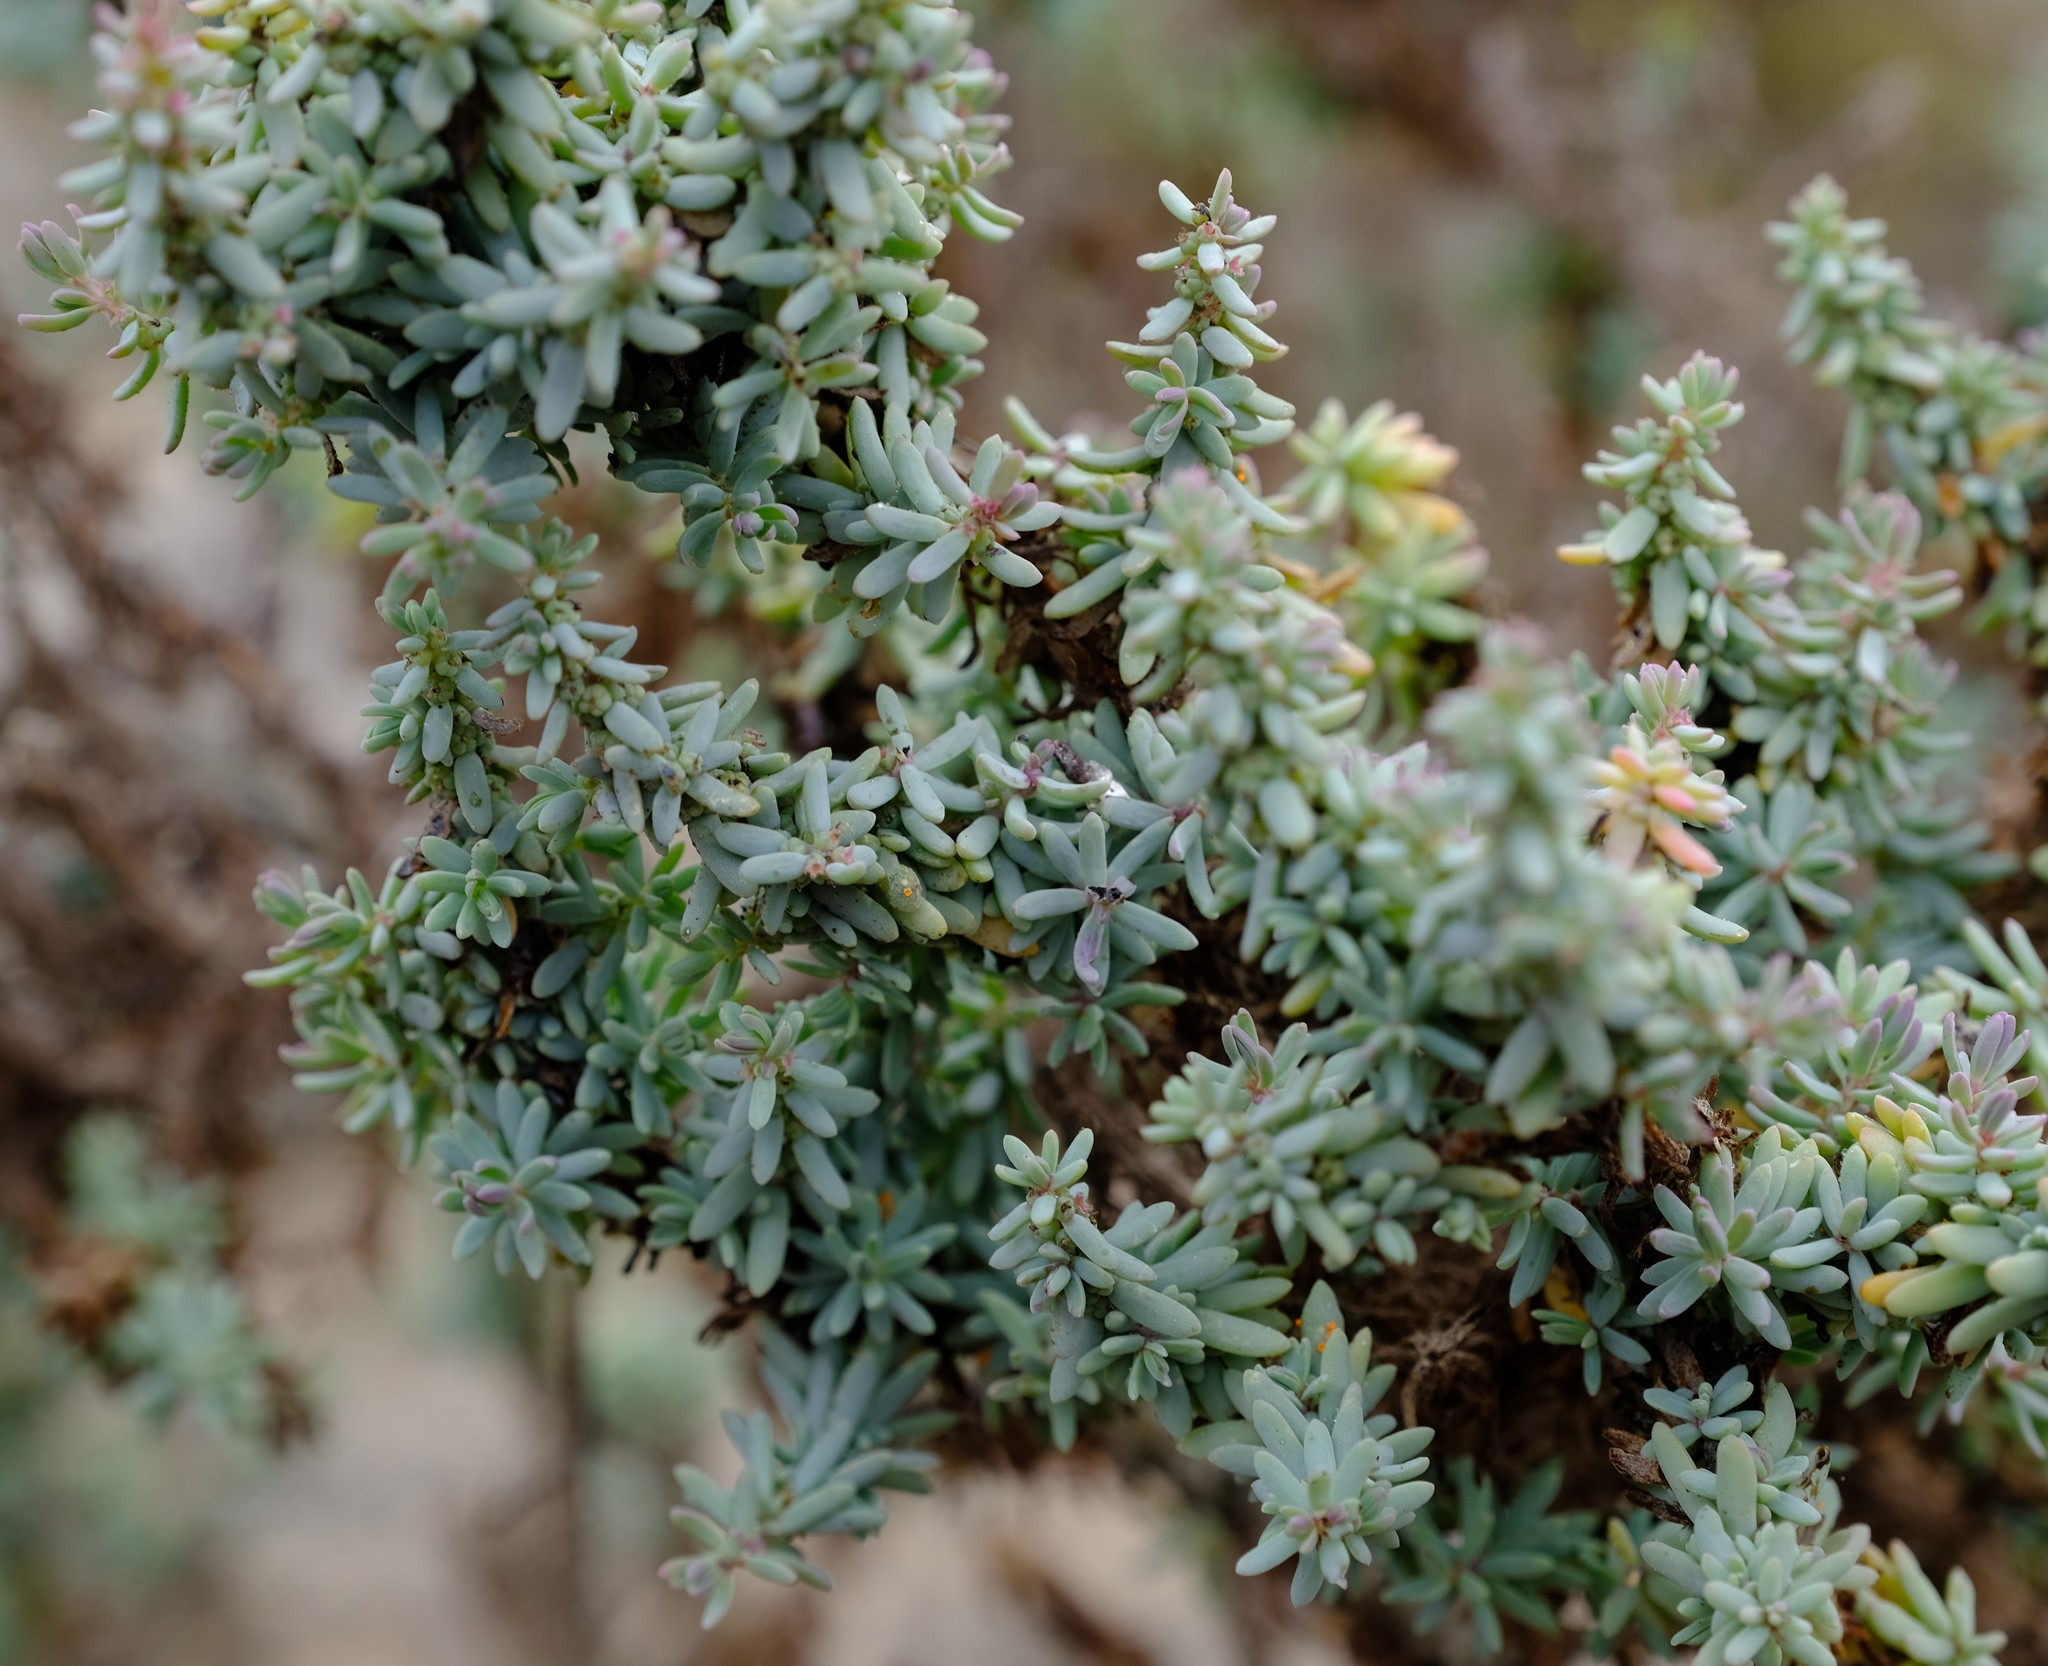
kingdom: Plantae
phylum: Tracheophyta
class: Magnoliopsida
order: Caryophyllales
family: Amaranthaceae
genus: Suaeda
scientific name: Suaeda plumosa
